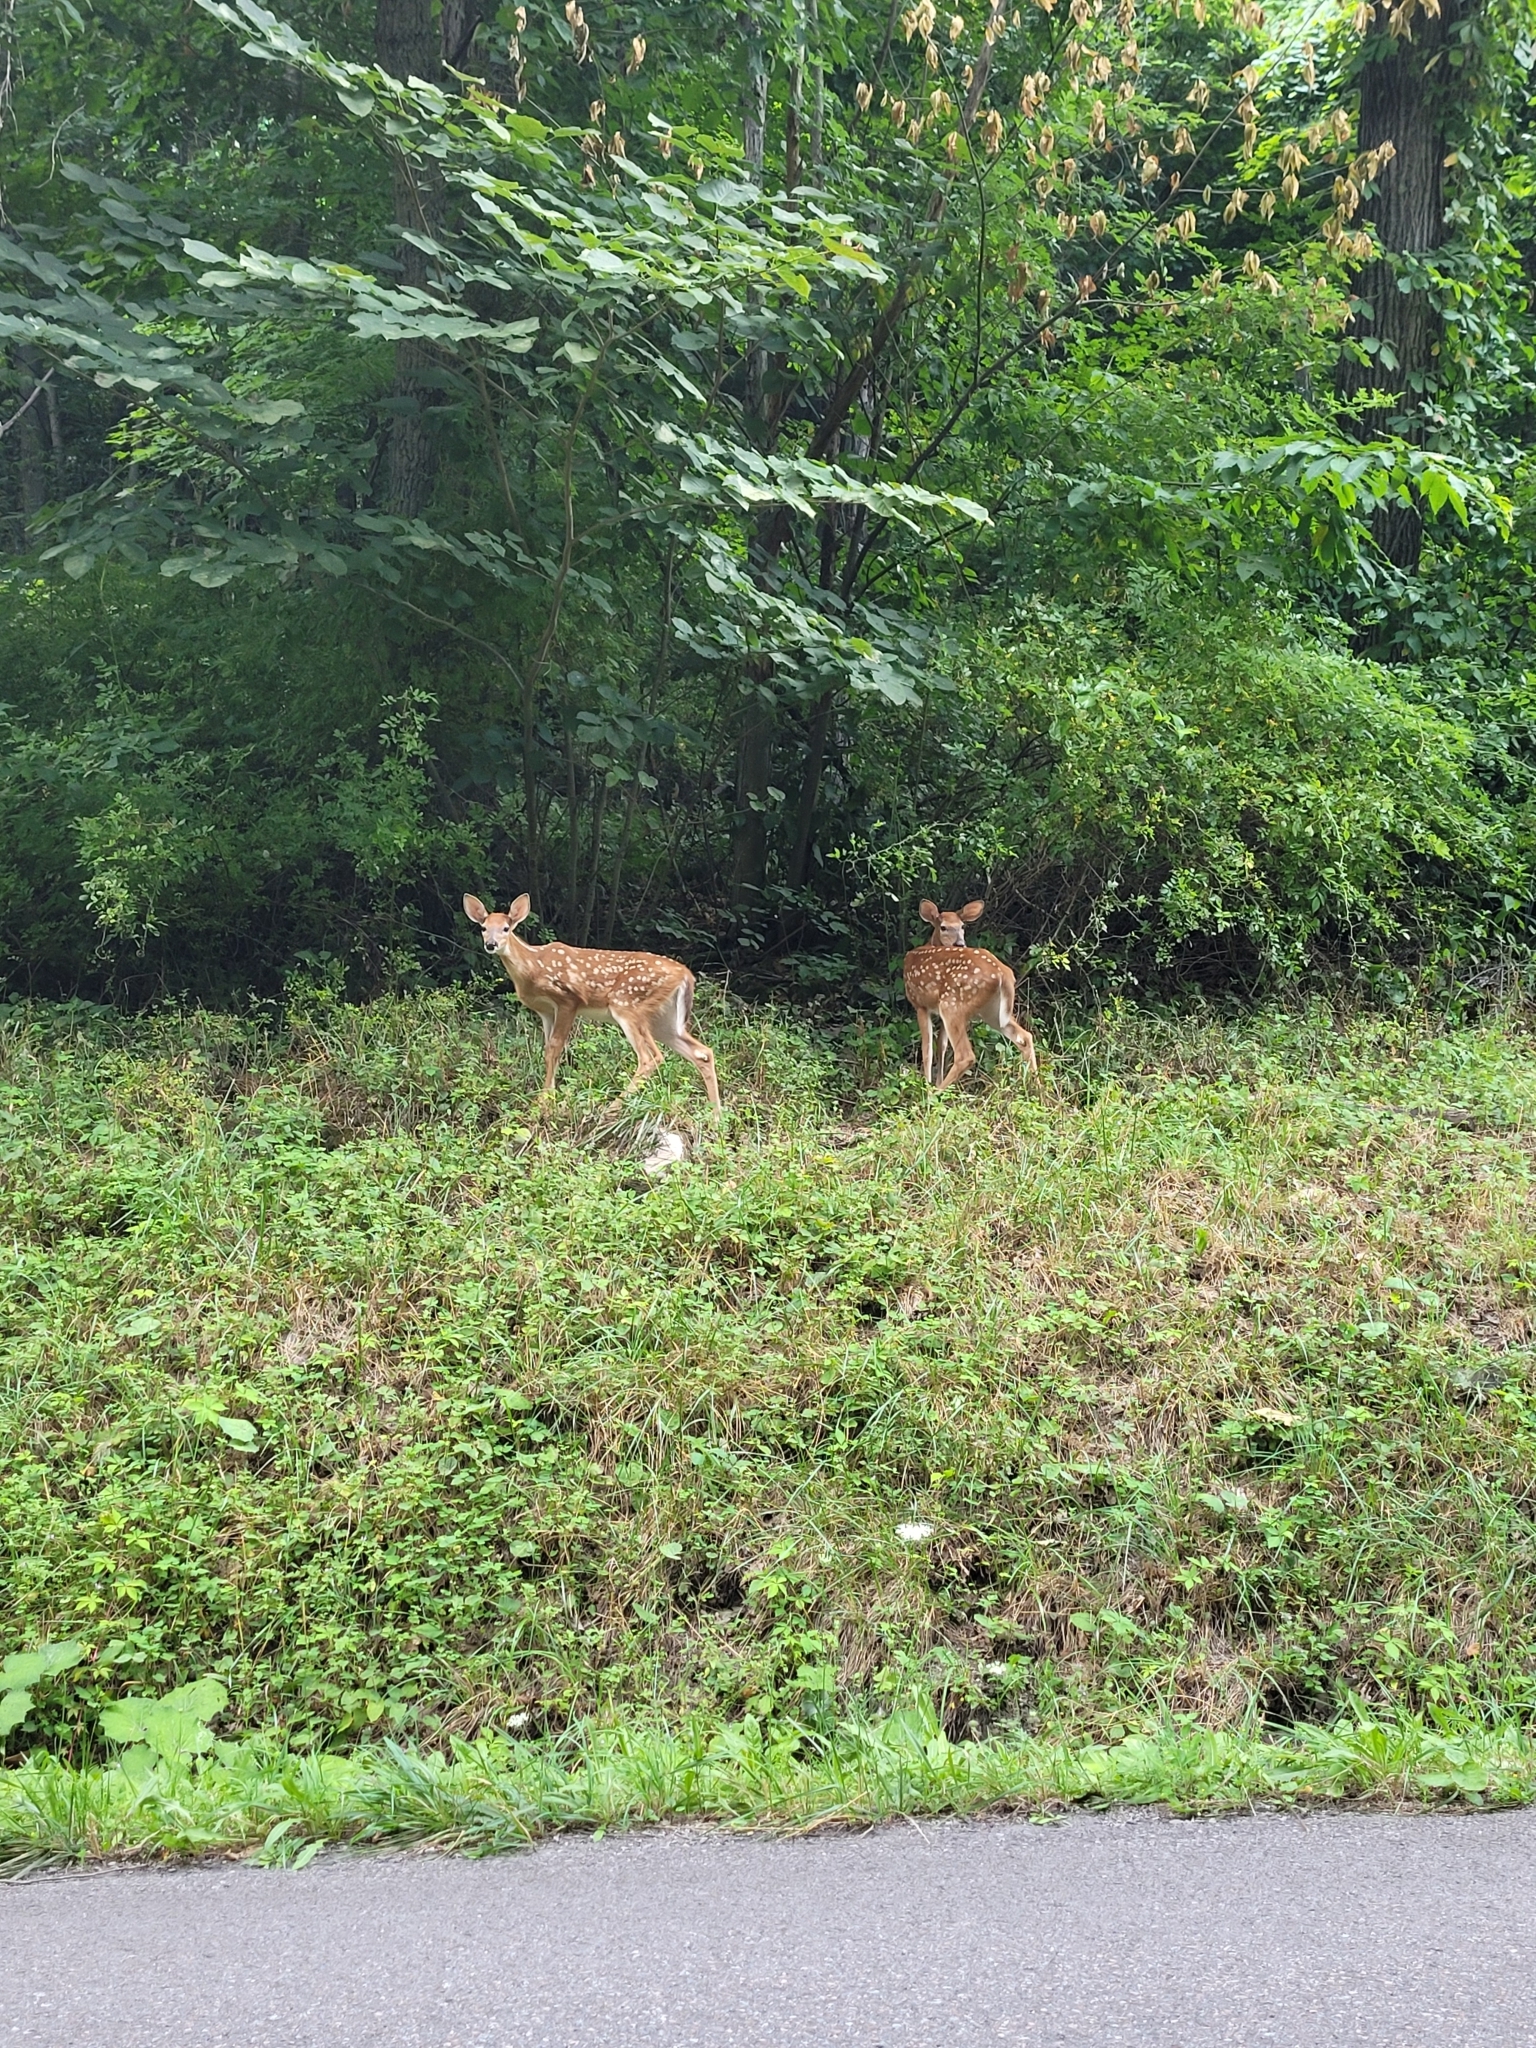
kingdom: Animalia
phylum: Chordata
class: Mammalia
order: Artiodactyla
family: Cervidae
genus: Odocoileus
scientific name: Odocoileus virginianus
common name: White-tailed deer
